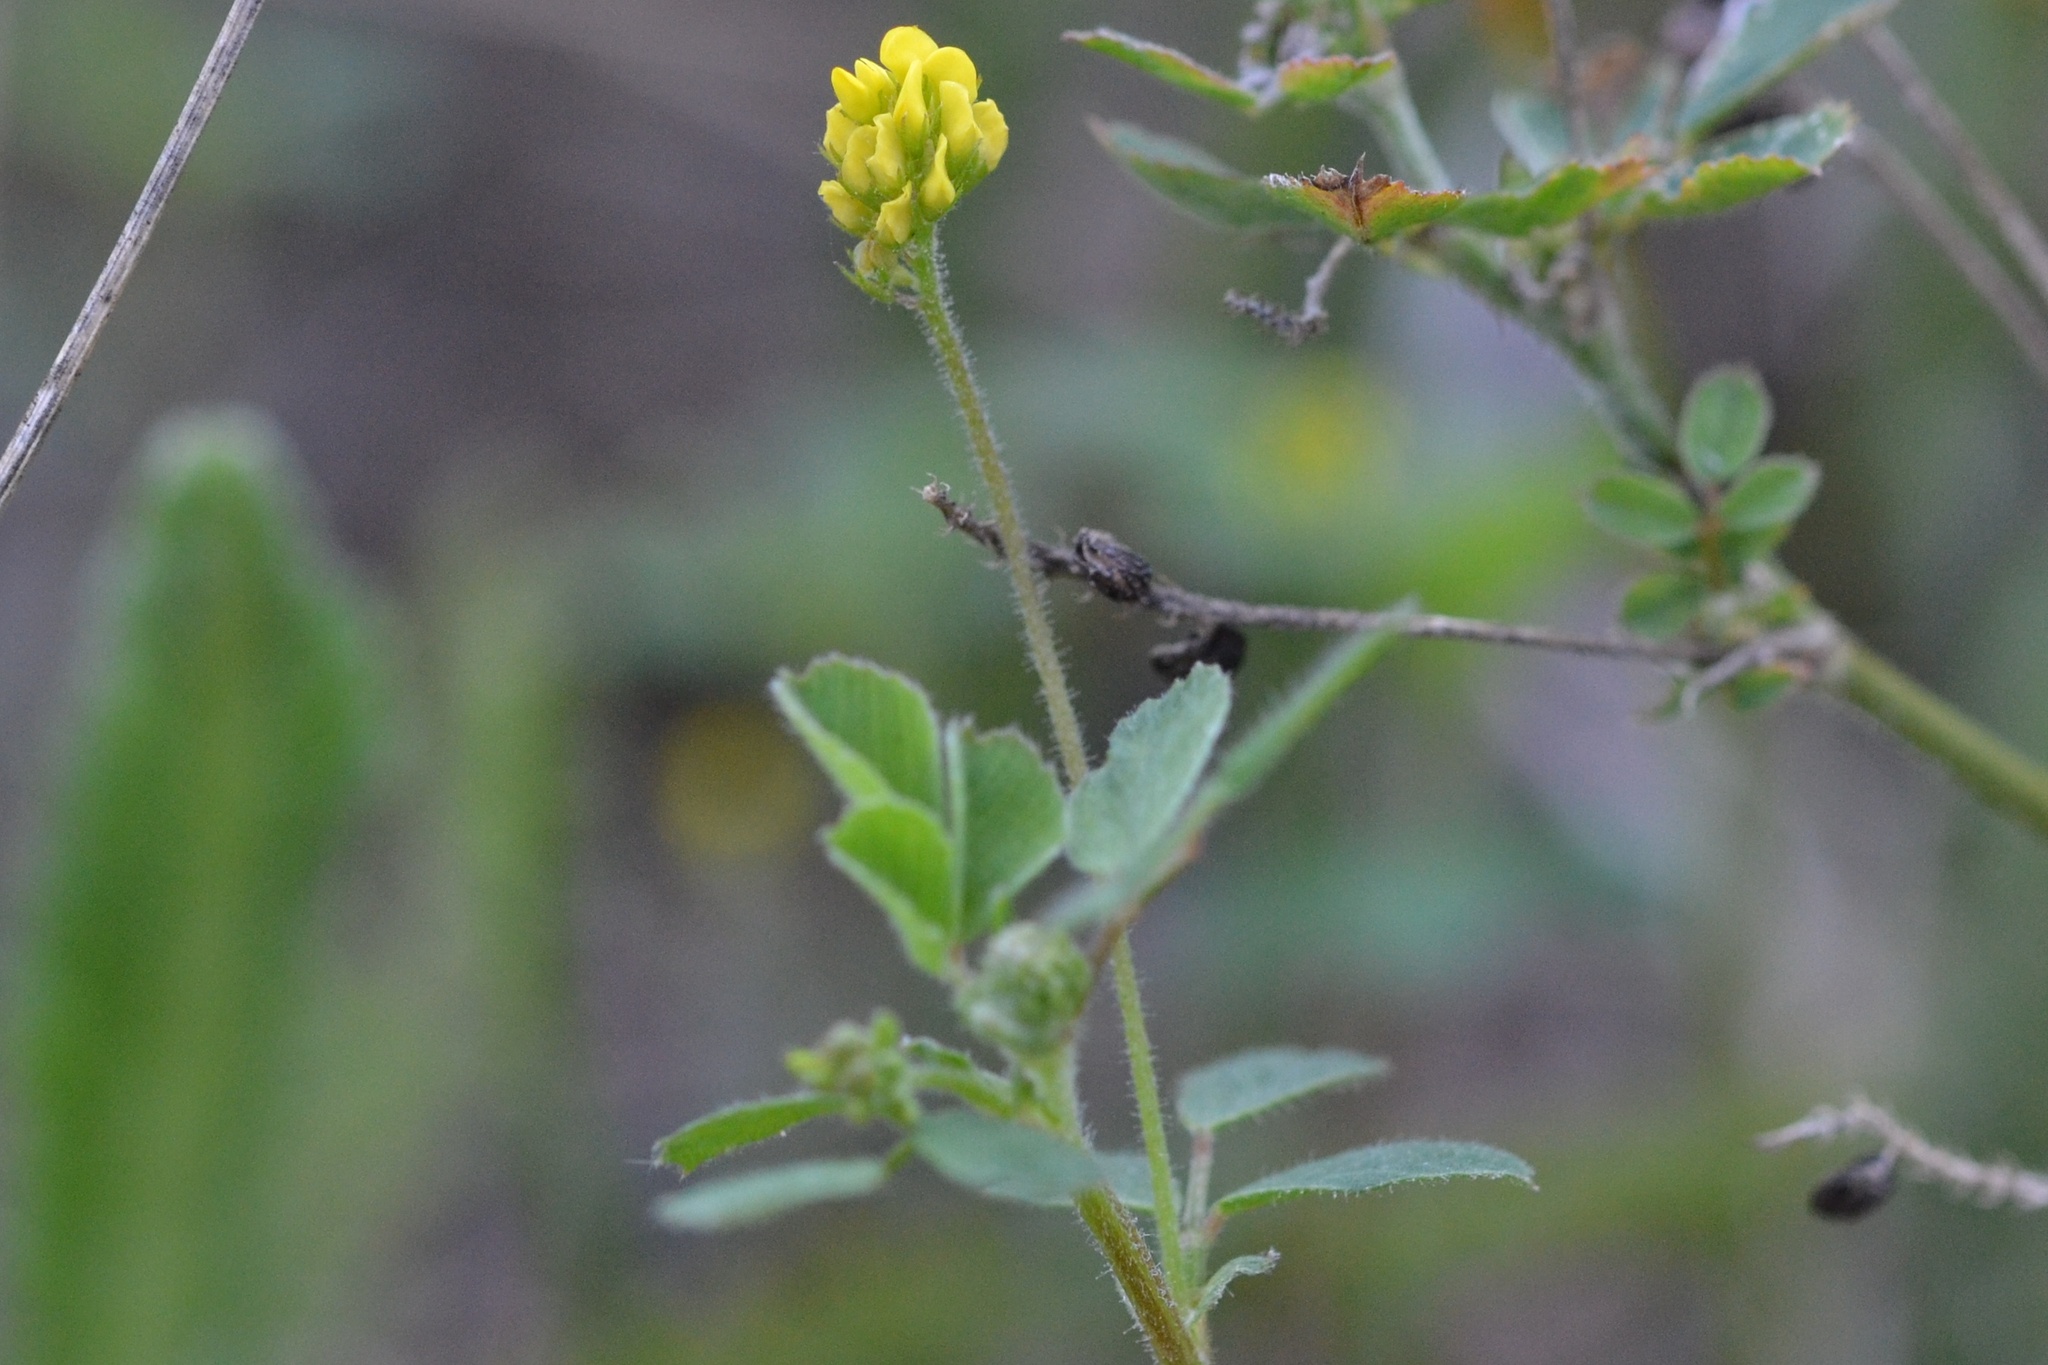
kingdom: Plantae
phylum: Tracheophyta
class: Magnoliopsida
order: Fabales
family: Fabaceae
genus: Medicago
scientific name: Medicago lupulina
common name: Black medick
